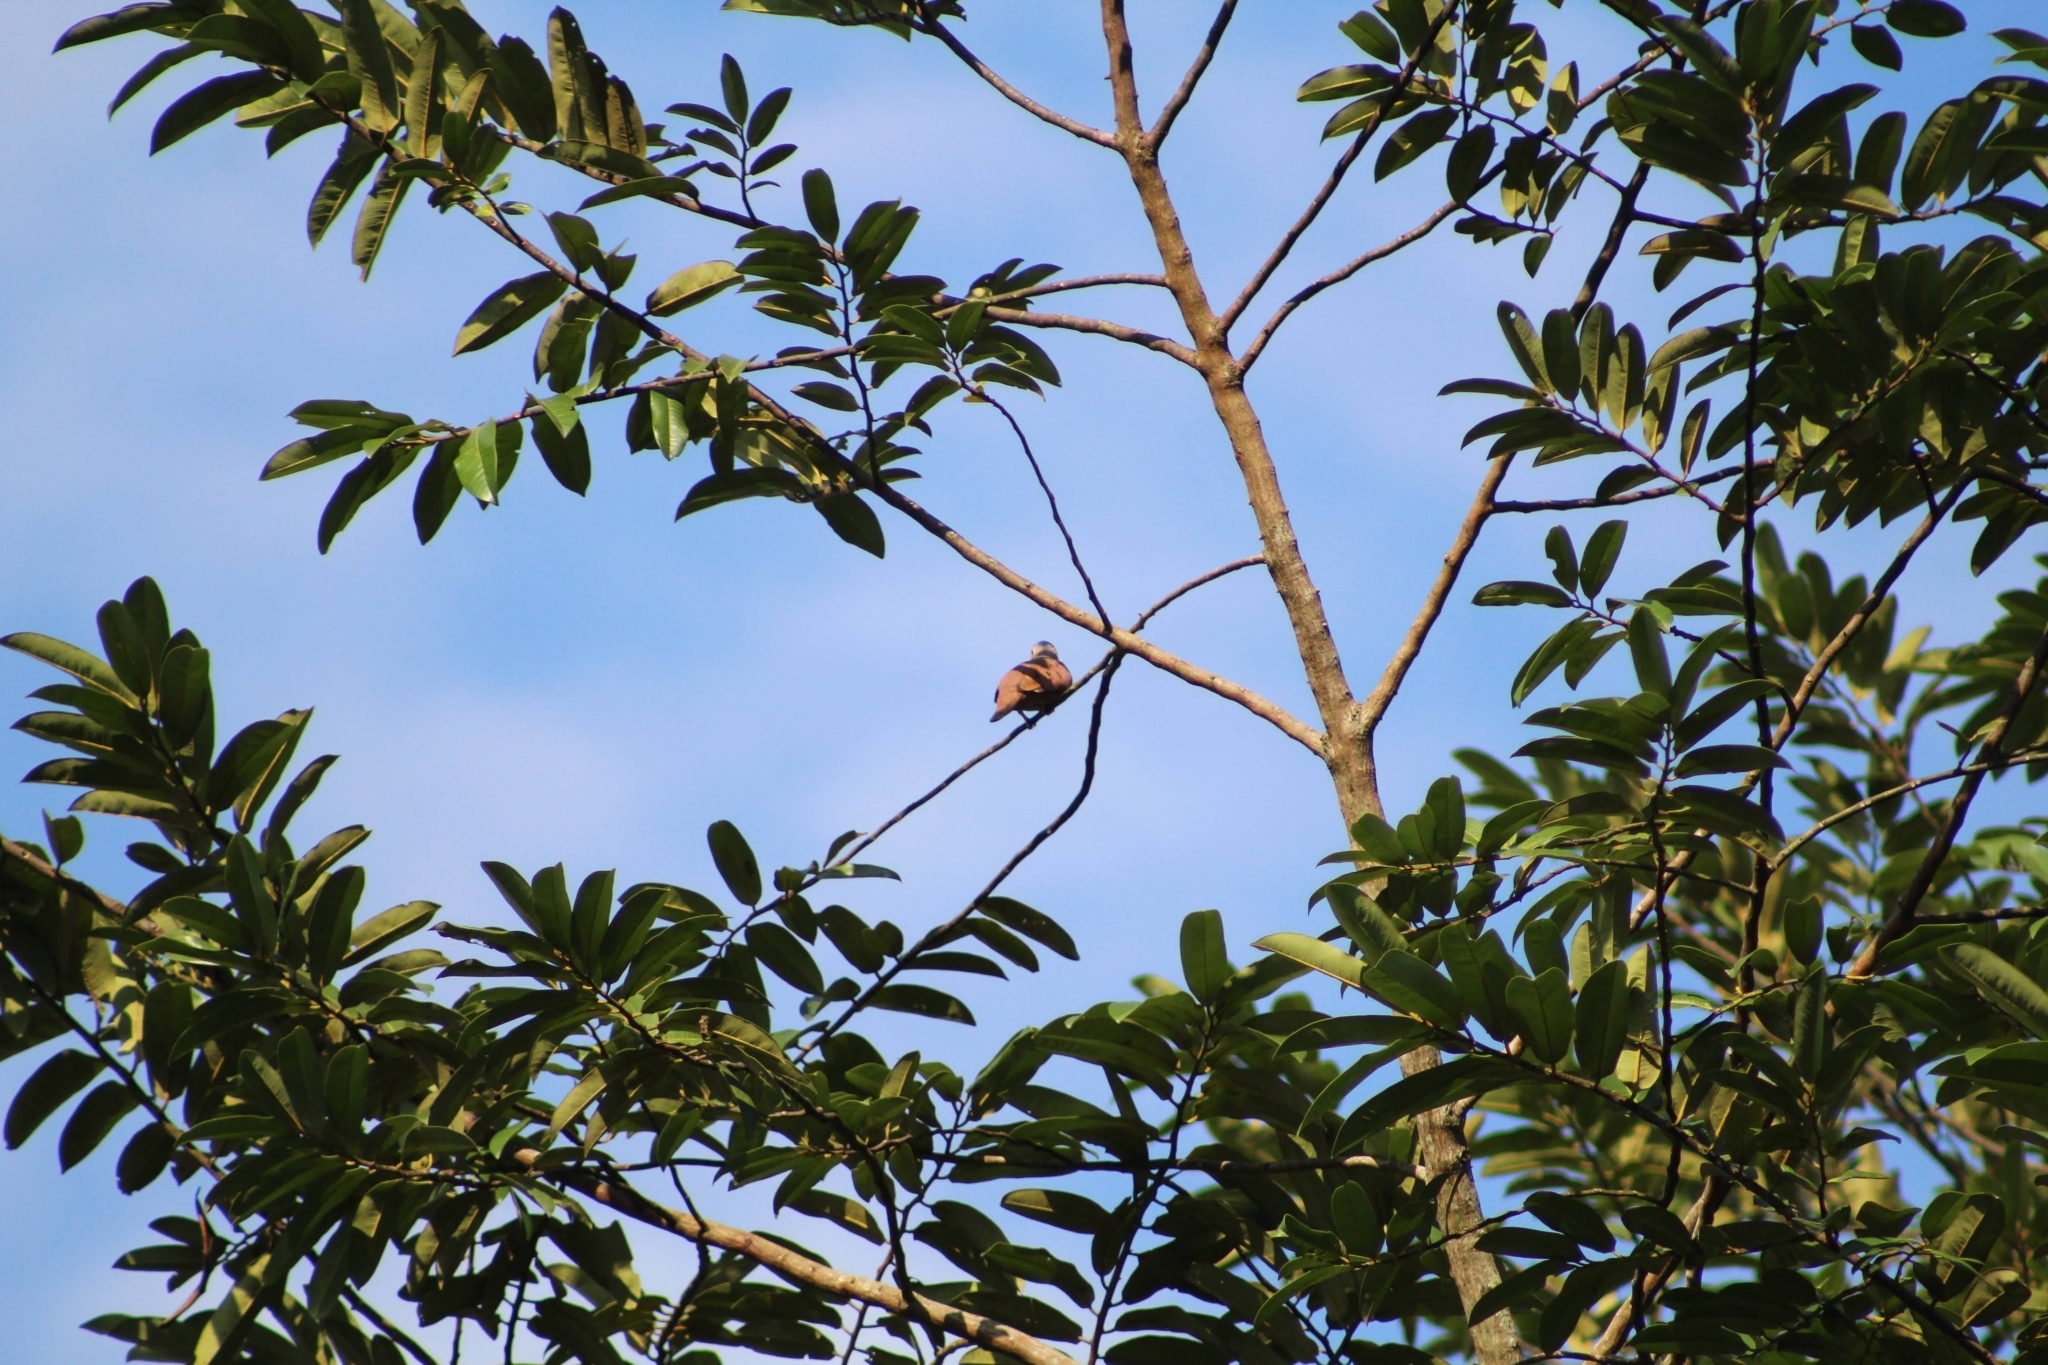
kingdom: Animalia
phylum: Chordata
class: Aves
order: Columbiformes
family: Columbidae
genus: Columbina
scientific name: Columbina talpacoti
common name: Ruddy ground dove
